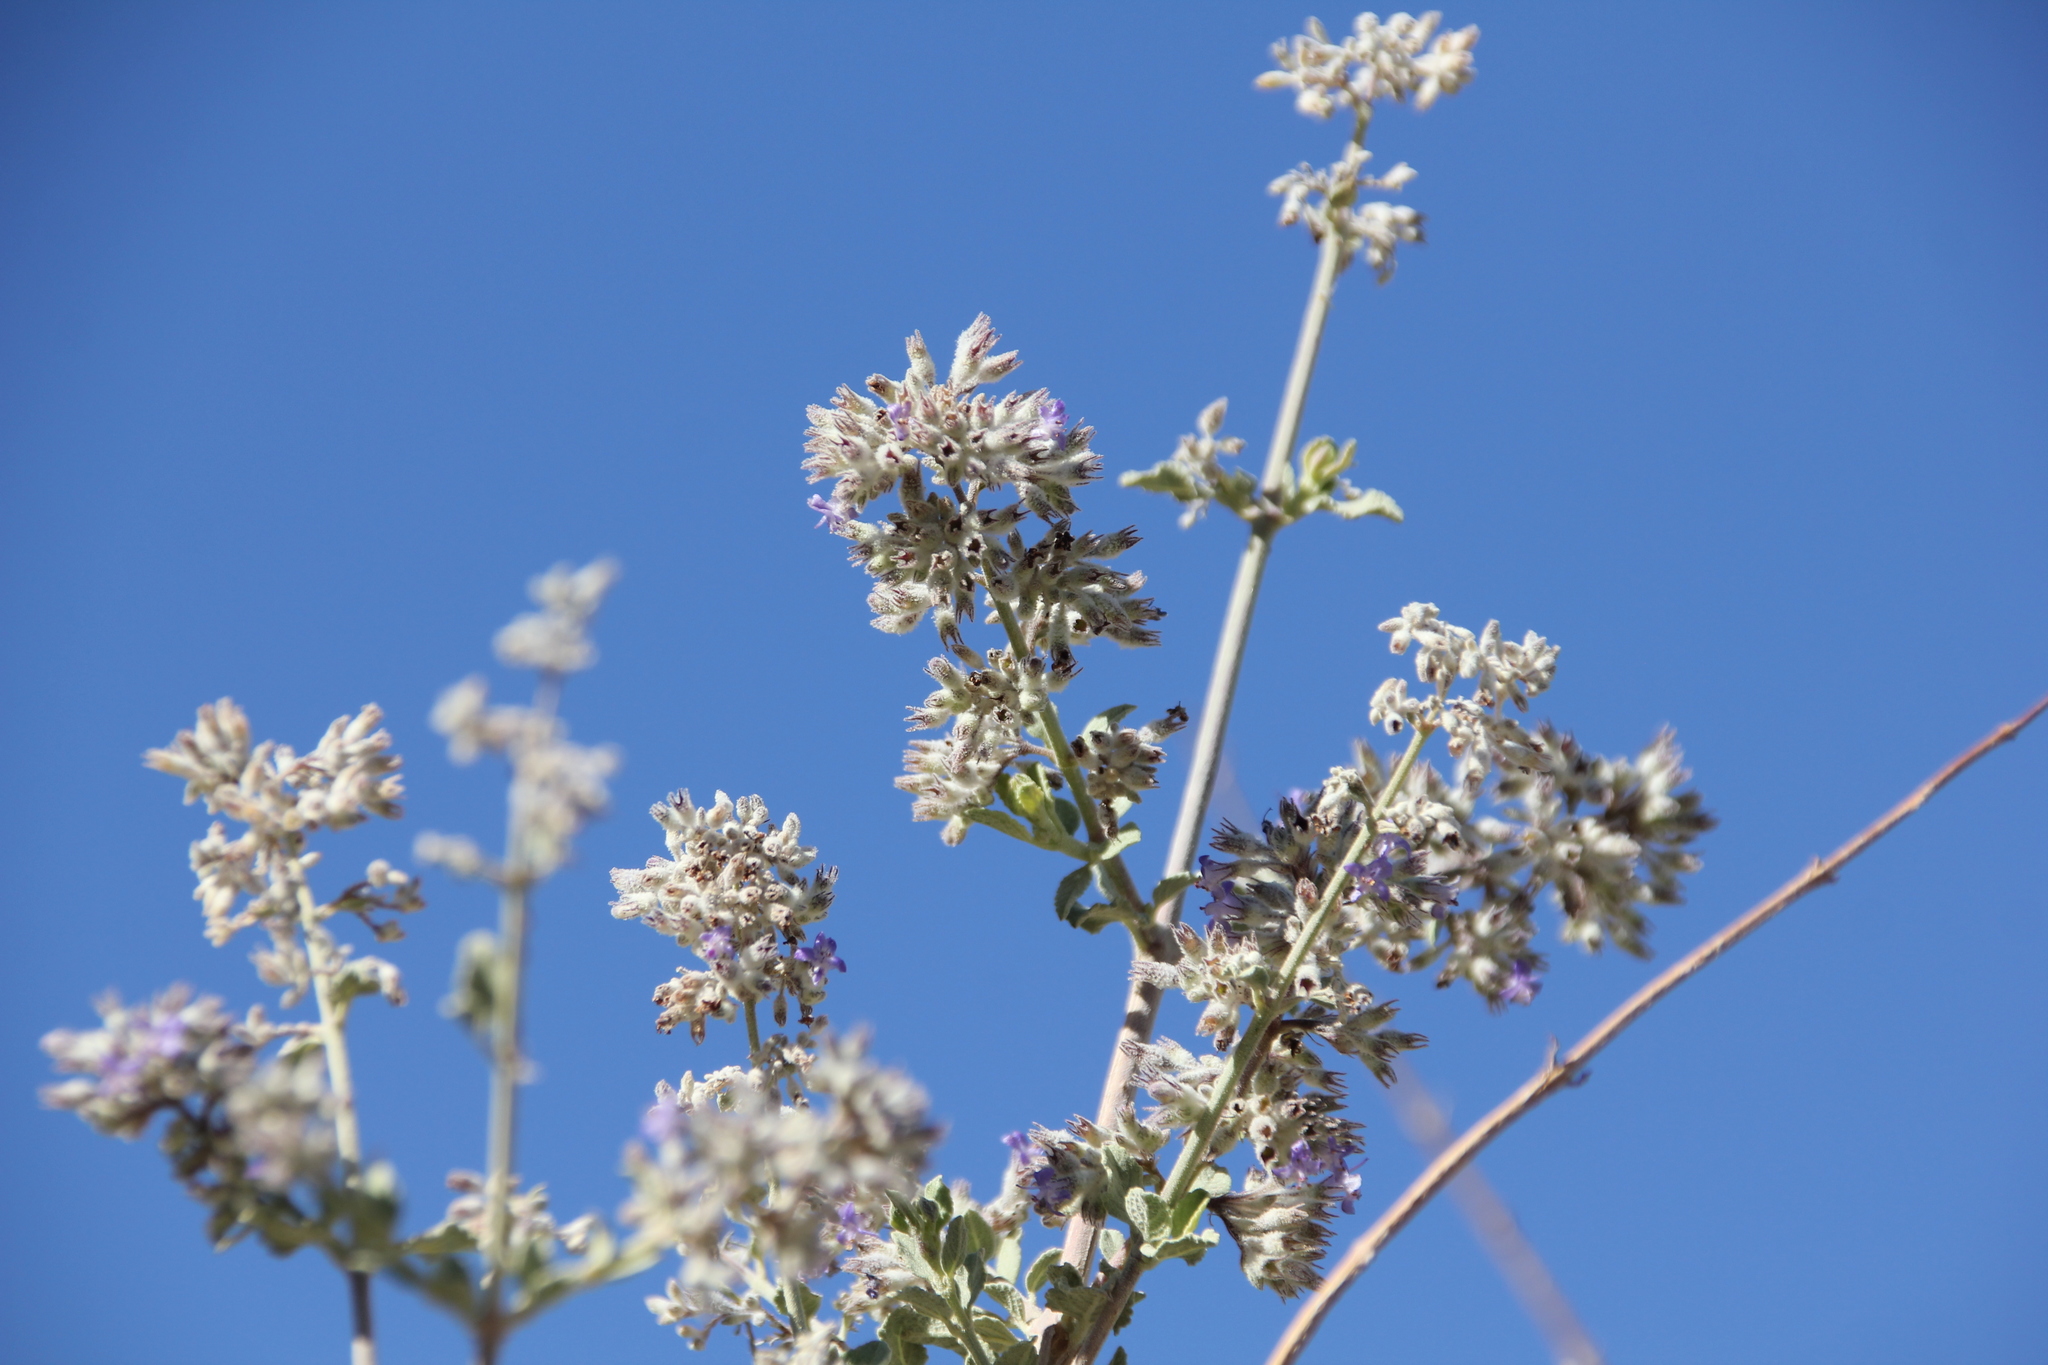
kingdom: Plantae
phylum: Tracheophyta
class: Magnoliopsida
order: Lamiales
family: Lamiaceae
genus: Condea
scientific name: Condea emoryi
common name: Chia
